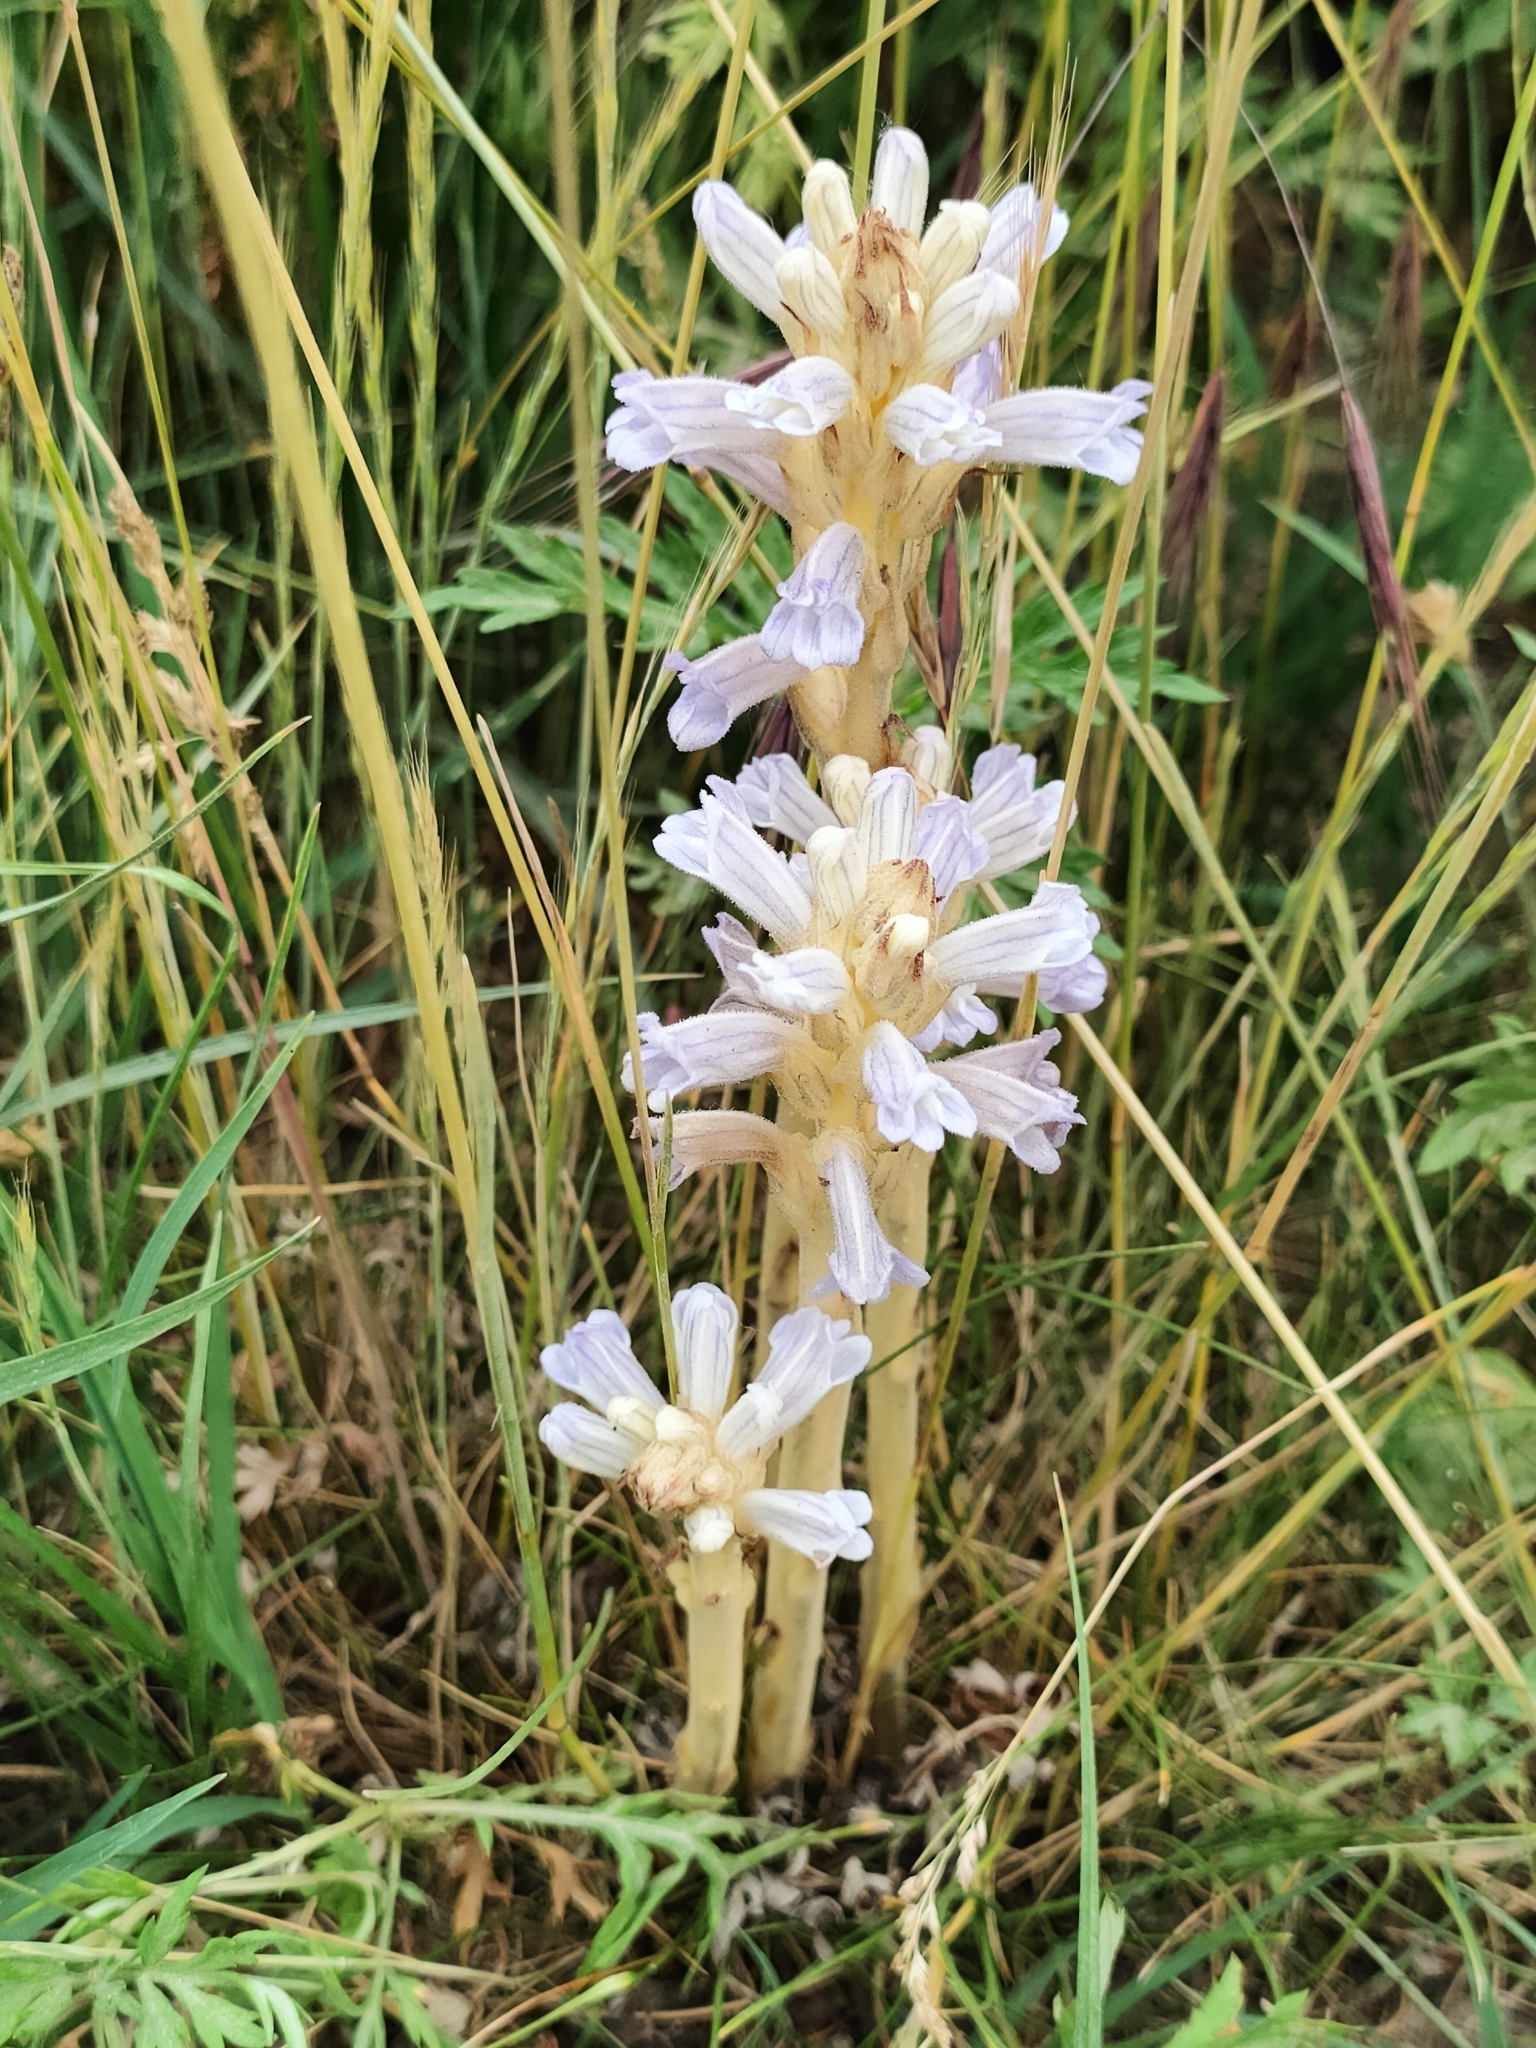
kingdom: Plantae
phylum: Tracheophyta
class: Magnoliopsida
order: Lamiales
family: Orobanchaceae
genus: Phelipanche
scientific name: Phelipanche purpurea
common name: Purple broomrape
